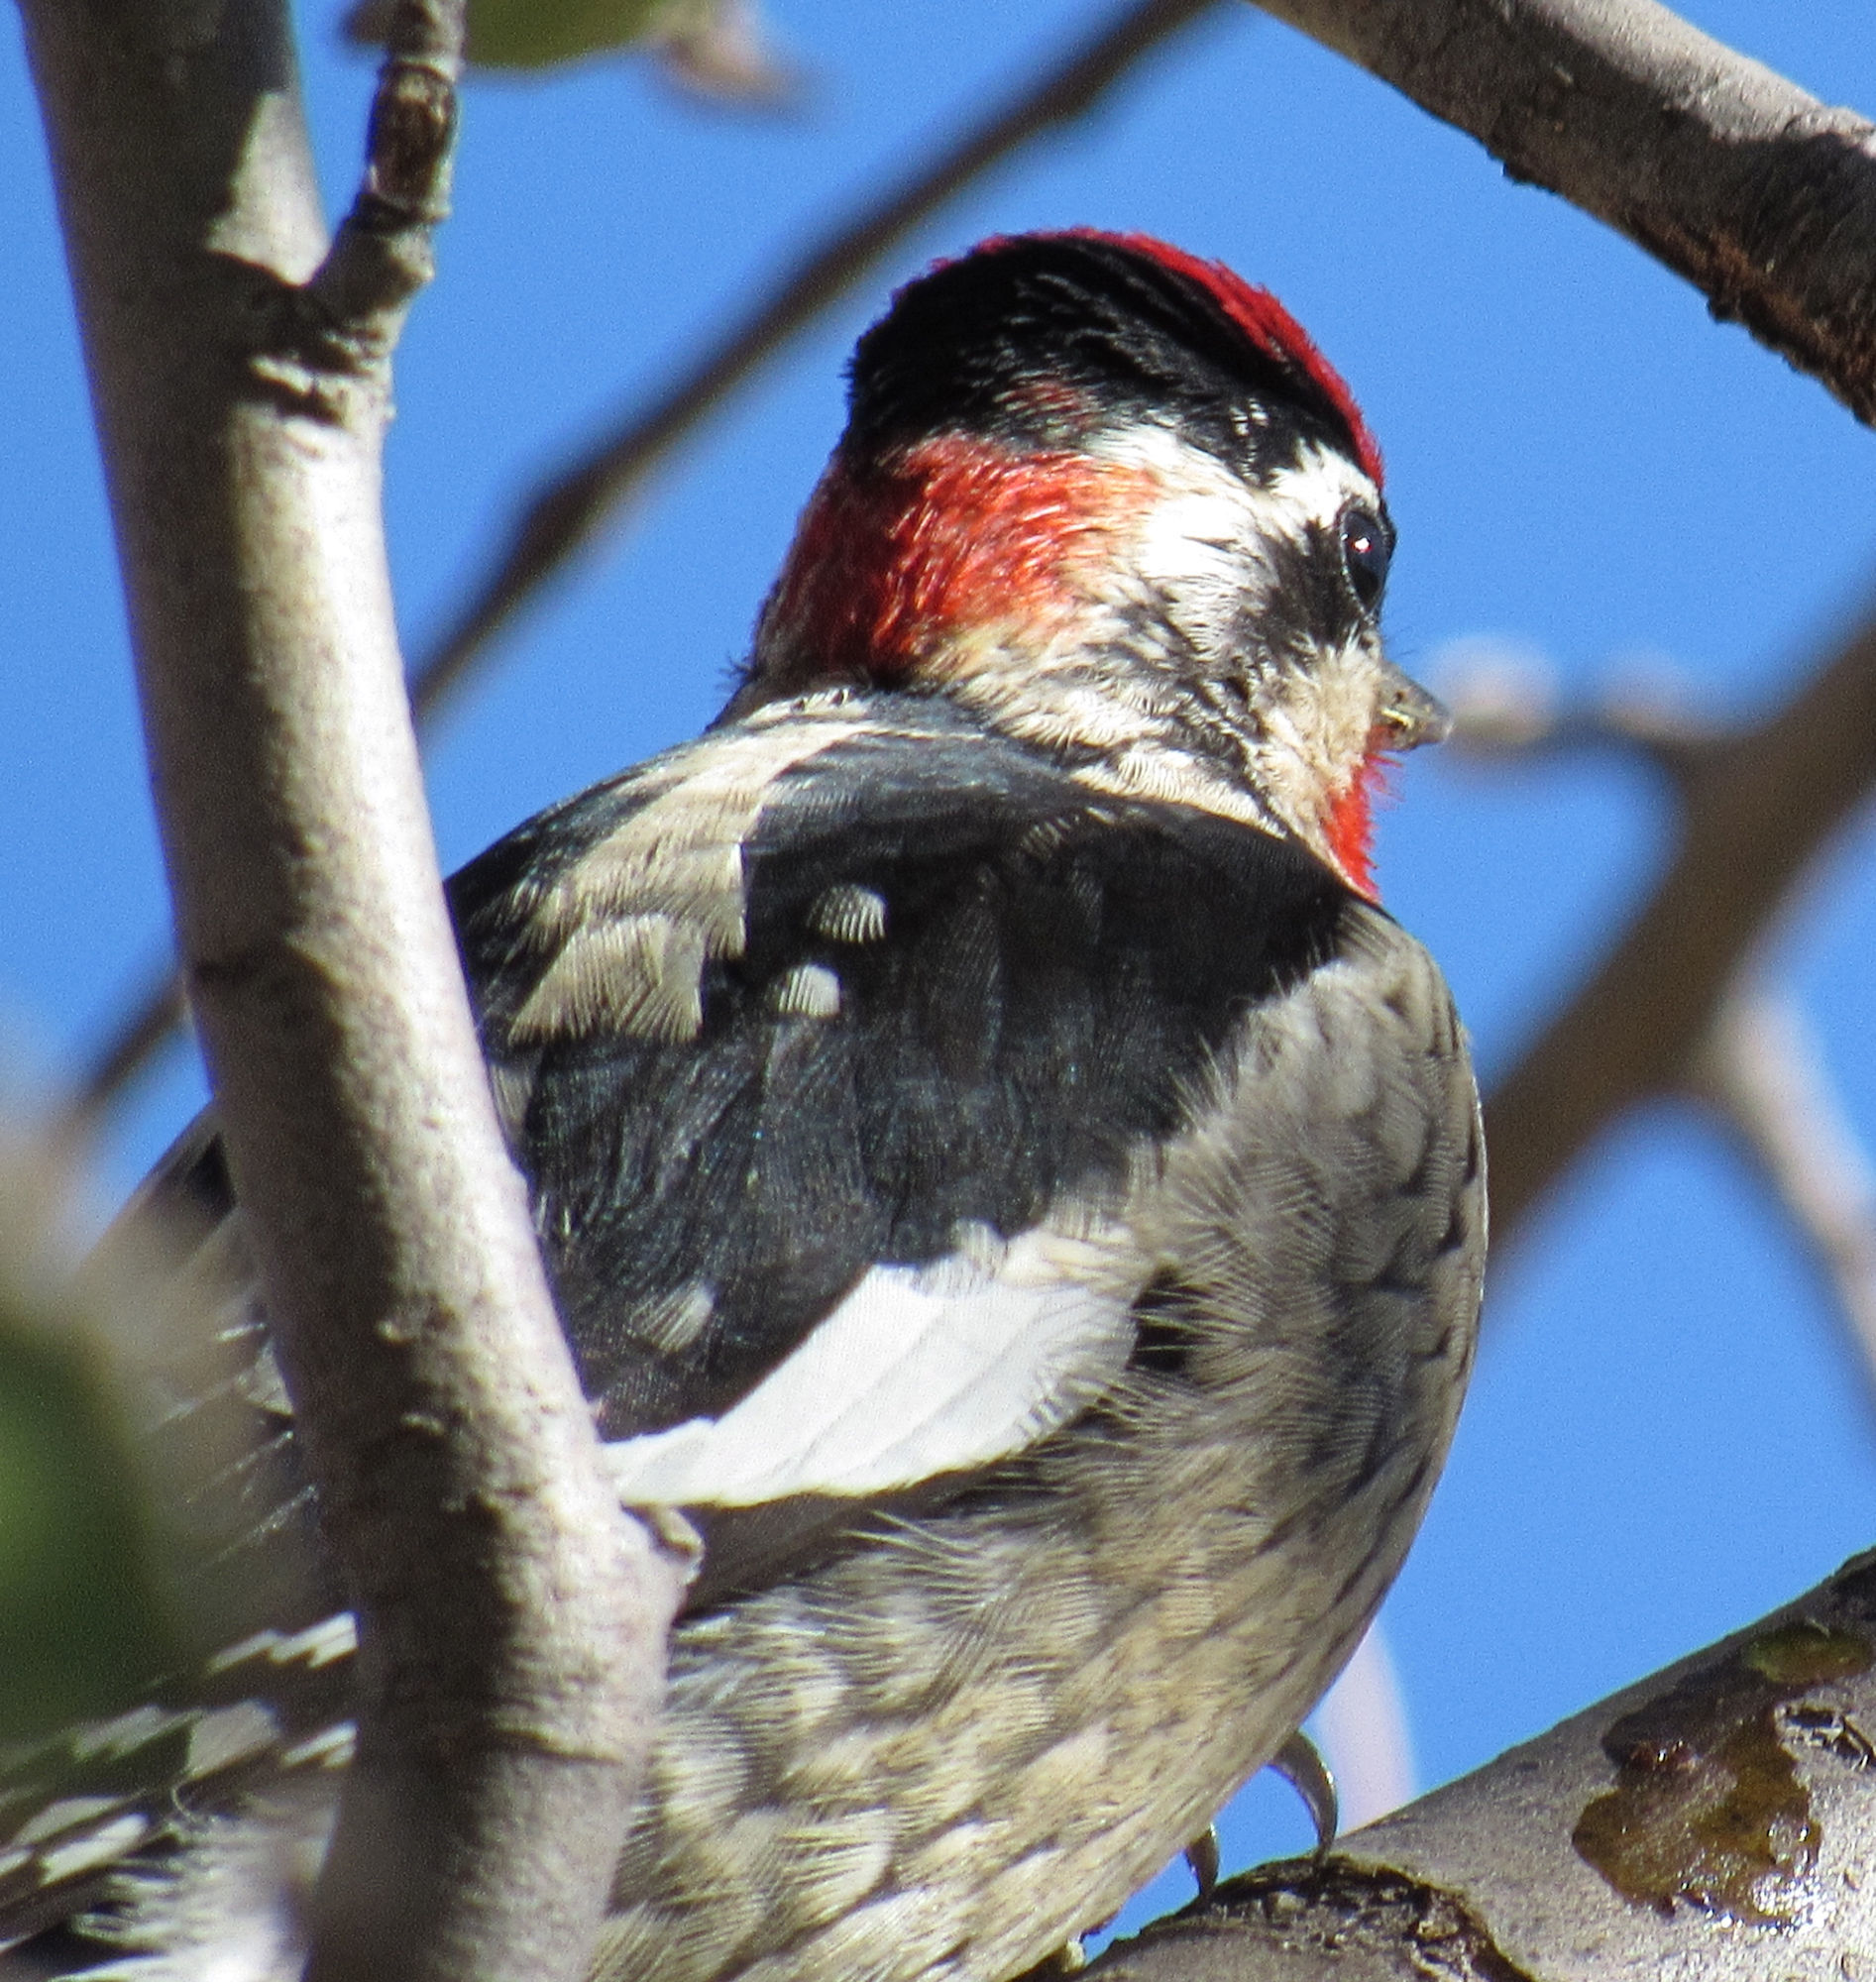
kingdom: Animalia
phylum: Chordata
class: Aves
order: Piciformes
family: Picidae
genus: Sphyrapicus
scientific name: Sphyrapicus nuchalis
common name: Red-naped sapsucker
